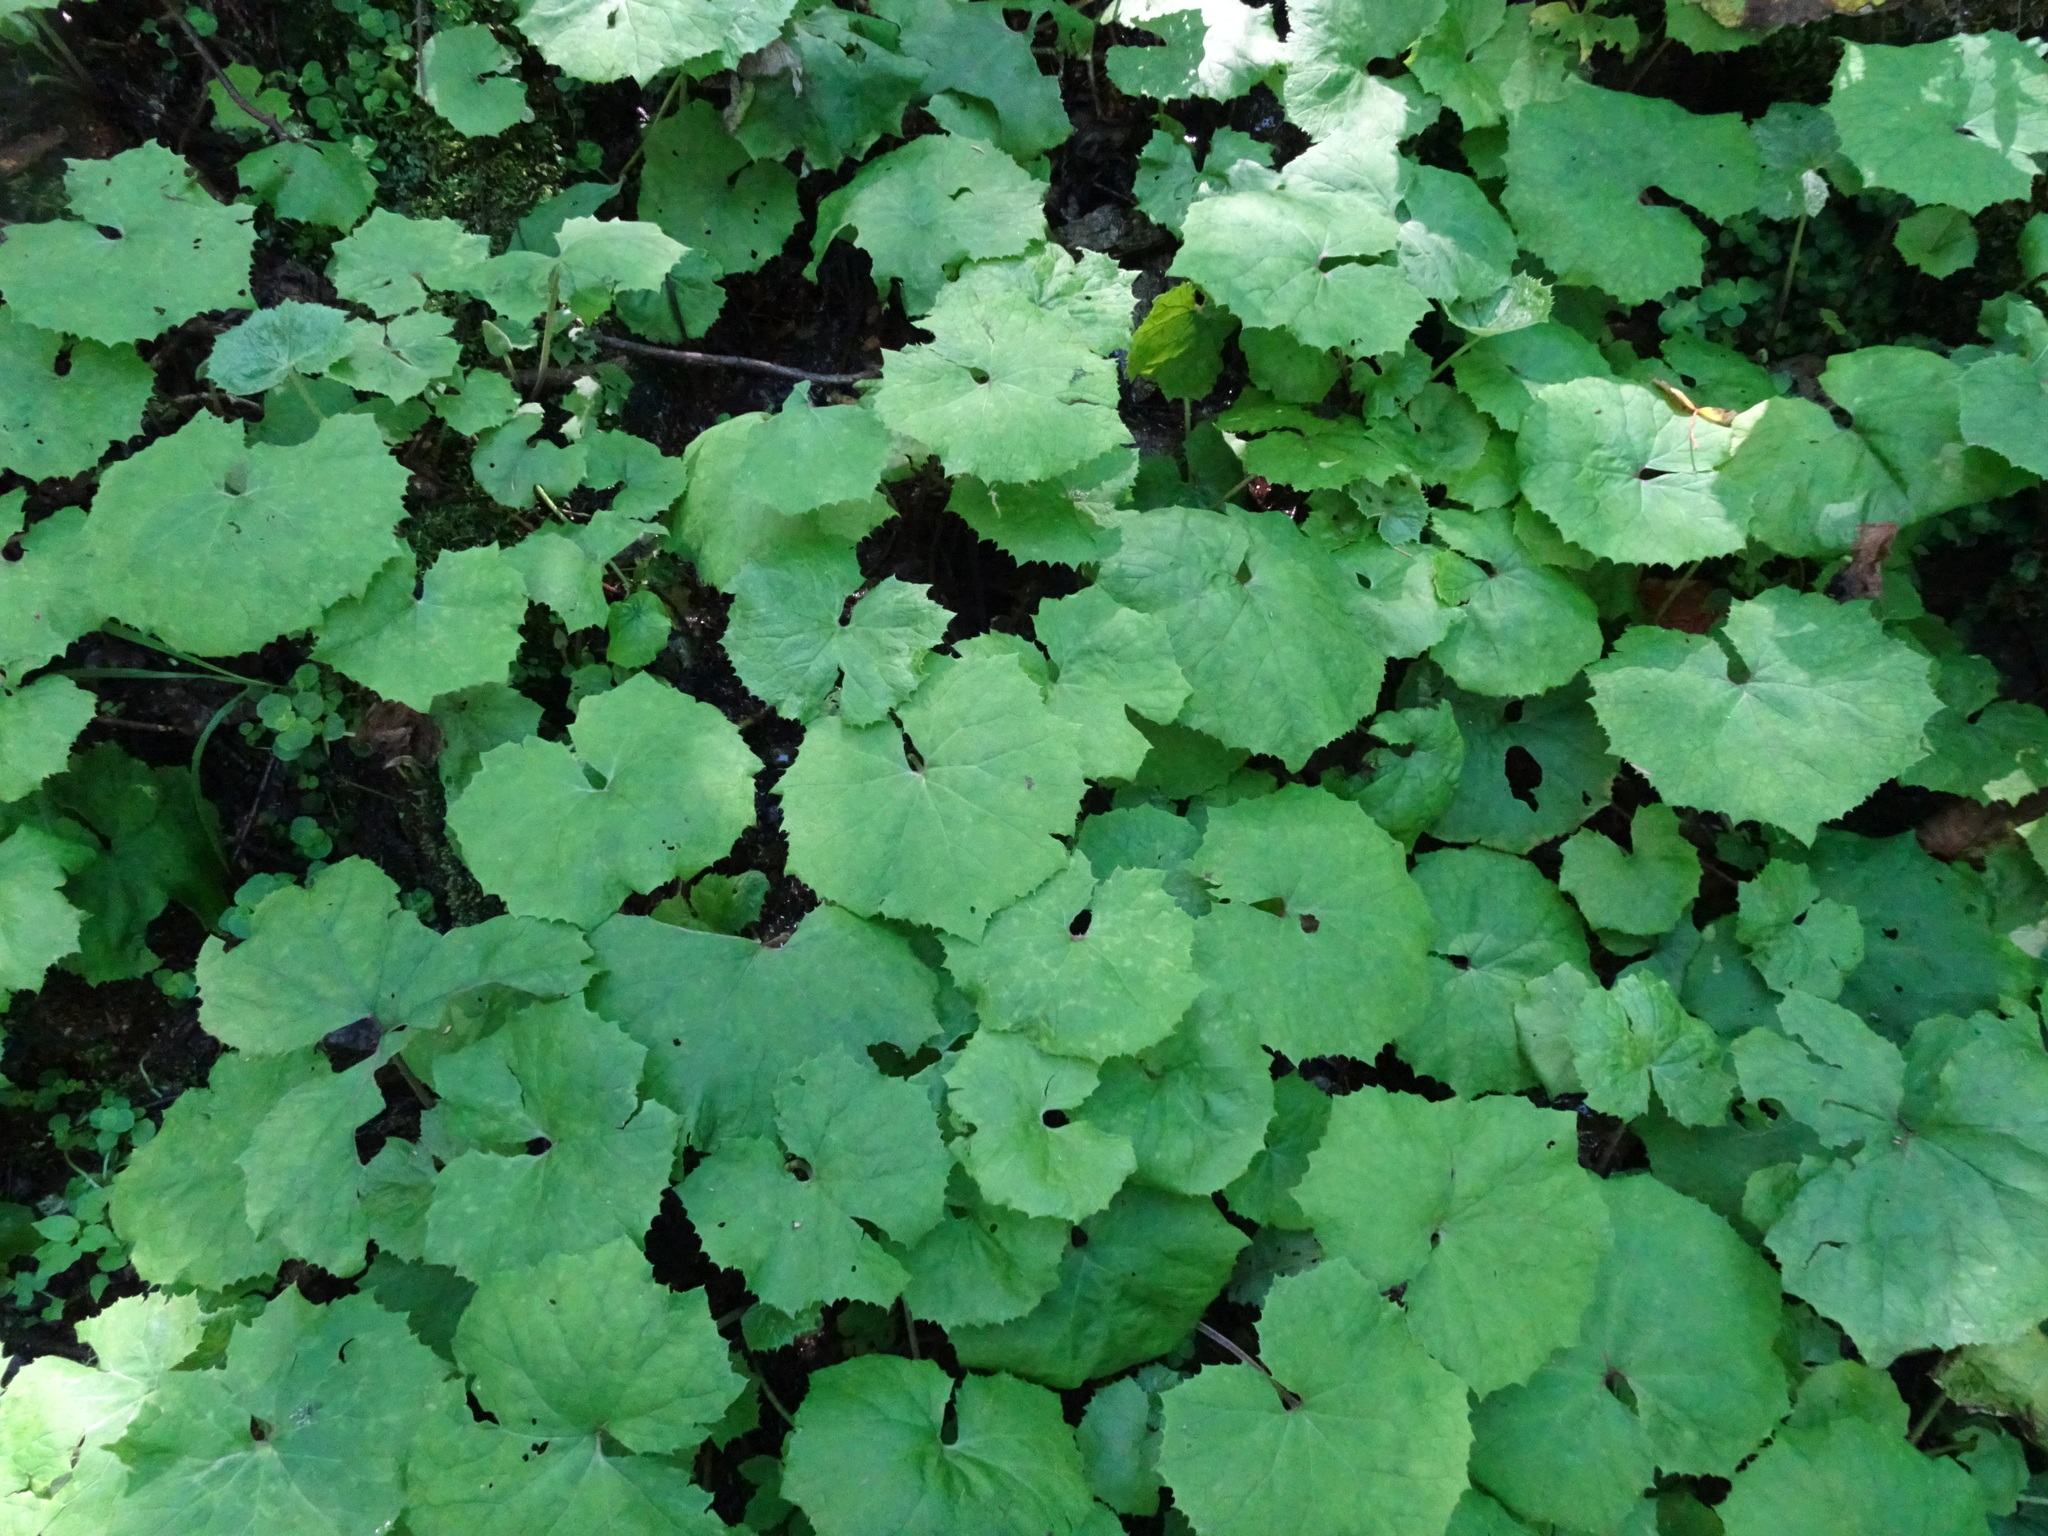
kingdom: Plantae
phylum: Tracheophyta
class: Magnoliopsida
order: Asterales
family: Asteraceae
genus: Petasites
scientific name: Petasites albus
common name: White butterbur
